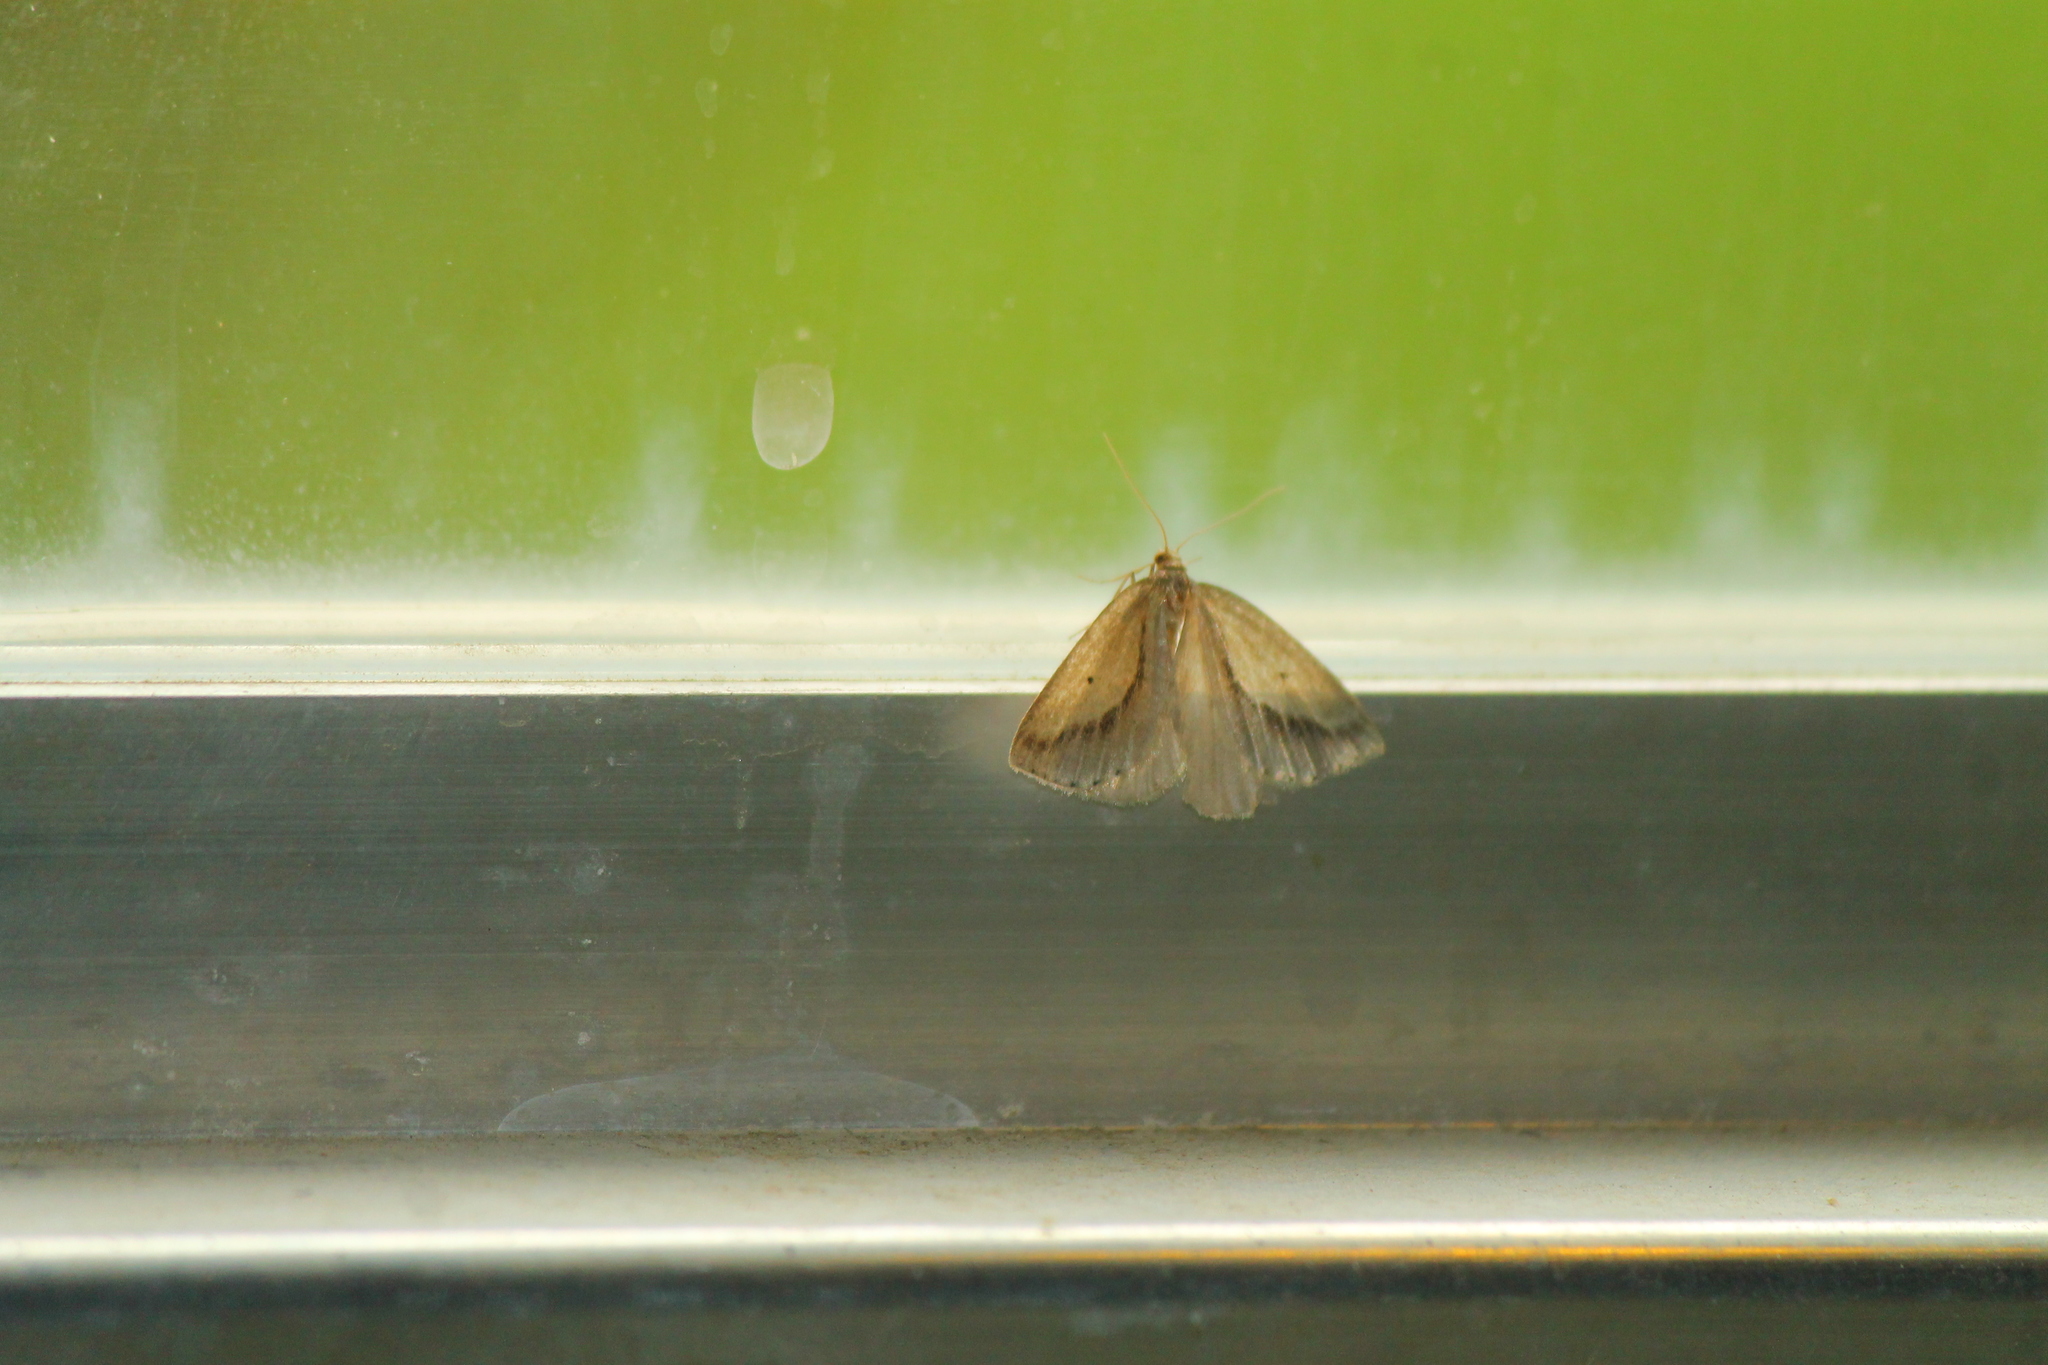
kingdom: Animalia
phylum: Arthropoda
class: Insecta
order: Lepidoptera
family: Geometridae
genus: Psilaspilates
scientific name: Psilaspilates signistriata
